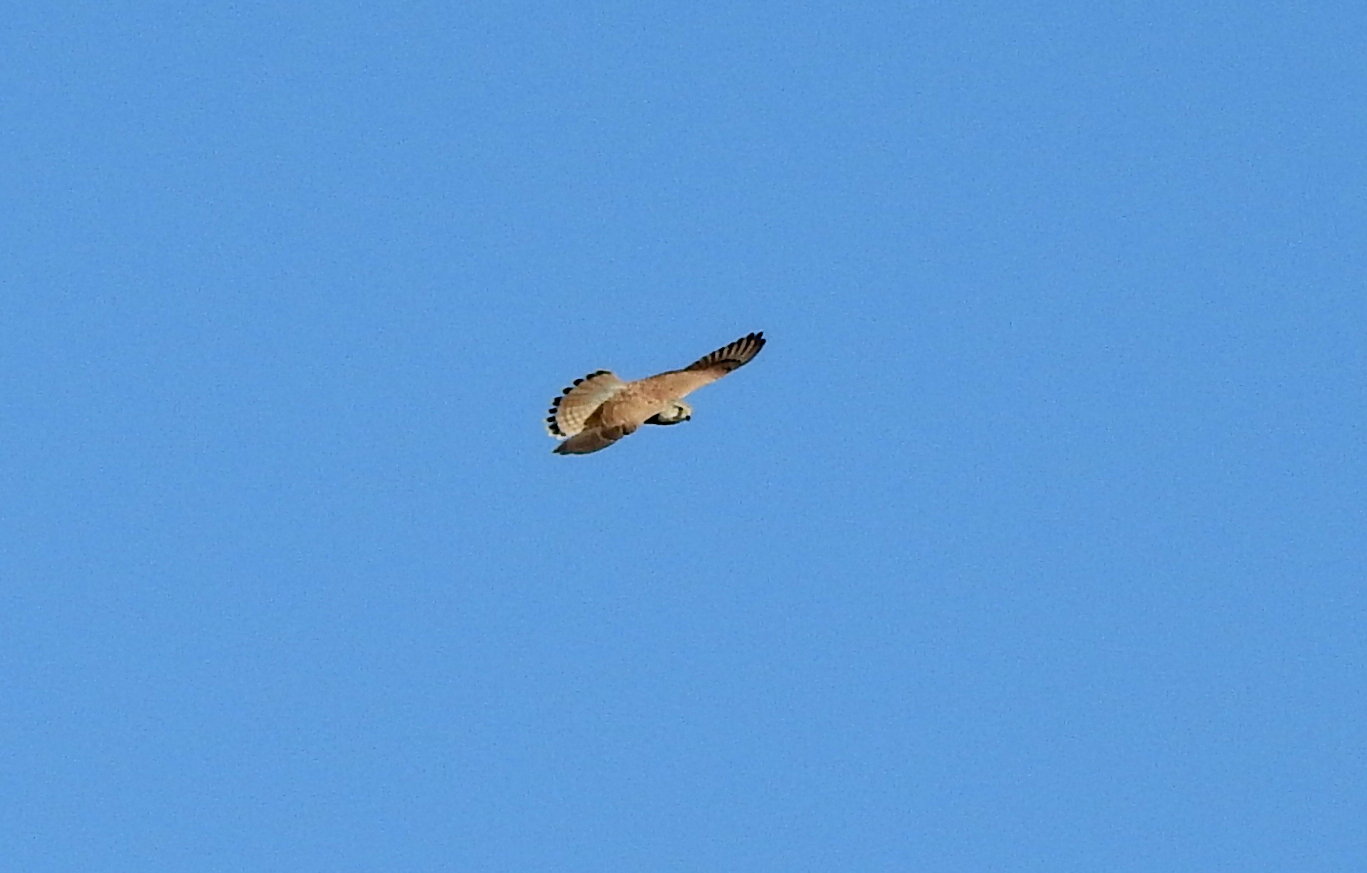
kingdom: Animalia
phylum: Chordata
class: Aves
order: Falconiformes
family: Falconidae
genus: Falco
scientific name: Falco tinnunculus
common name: Common kestrel
